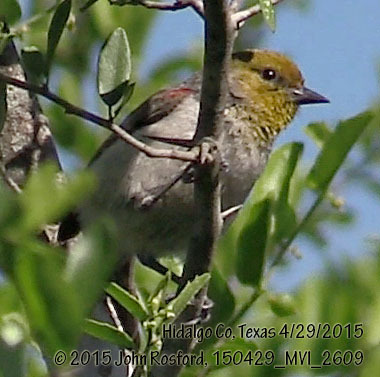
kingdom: Animalia
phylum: Chordata
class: Aves
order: Passeriformes
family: Remizidae
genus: Auriparus
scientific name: Auriparus flaviceps
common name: Verdin
